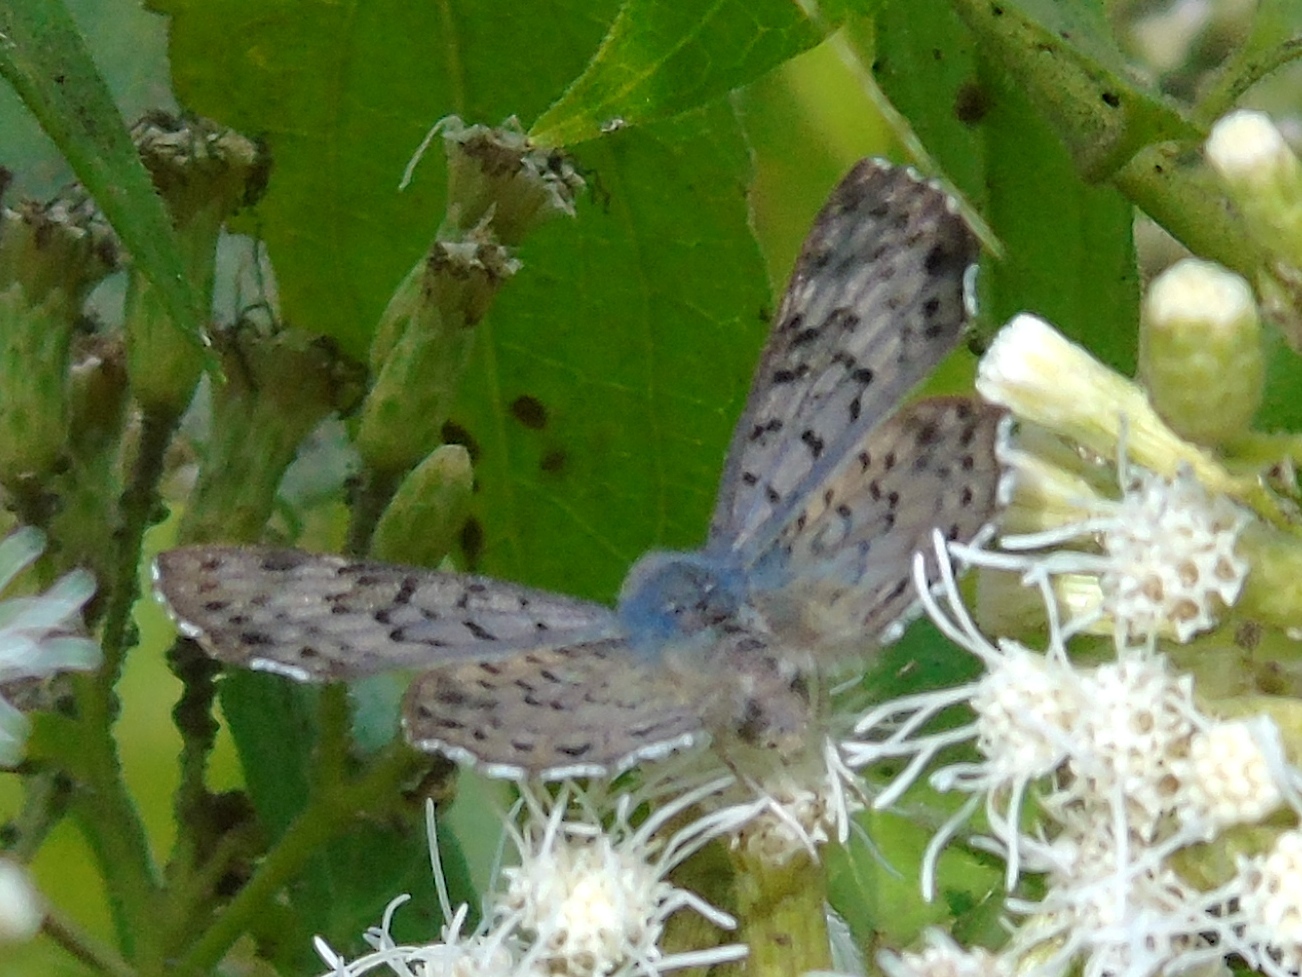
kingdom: Animalia
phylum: Arthropoda
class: Insecta
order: Lepidoptera
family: Riodinidae
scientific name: Riodinidae
